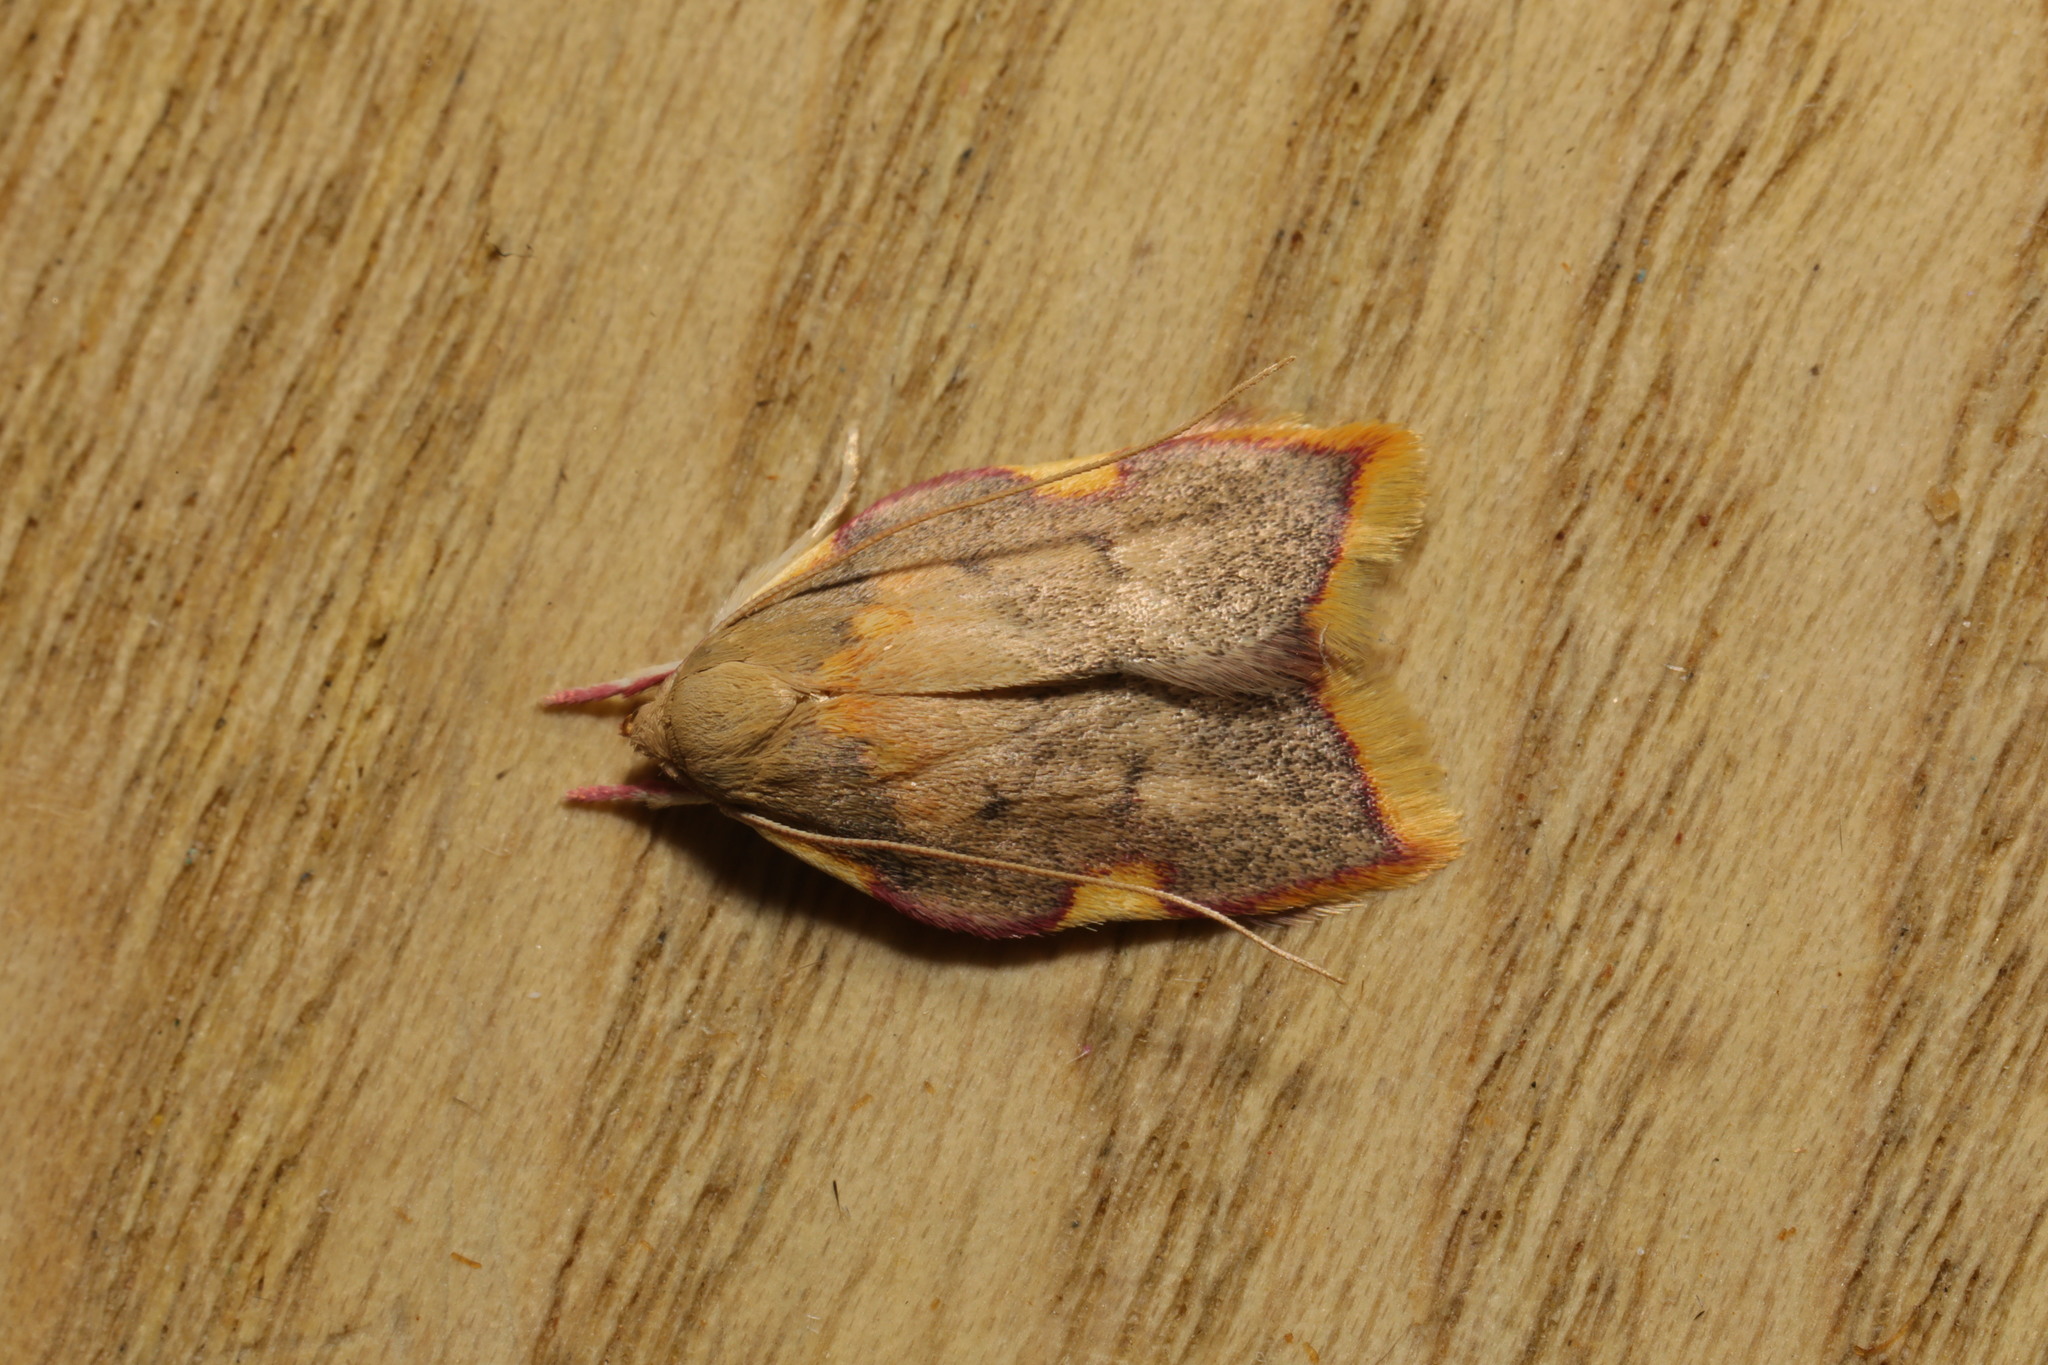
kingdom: Animalia
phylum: Arthropoda
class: Insecta
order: Lepidoptera
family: Peleopodidae
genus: Carcina
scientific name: Carcina quercana
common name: Moth
